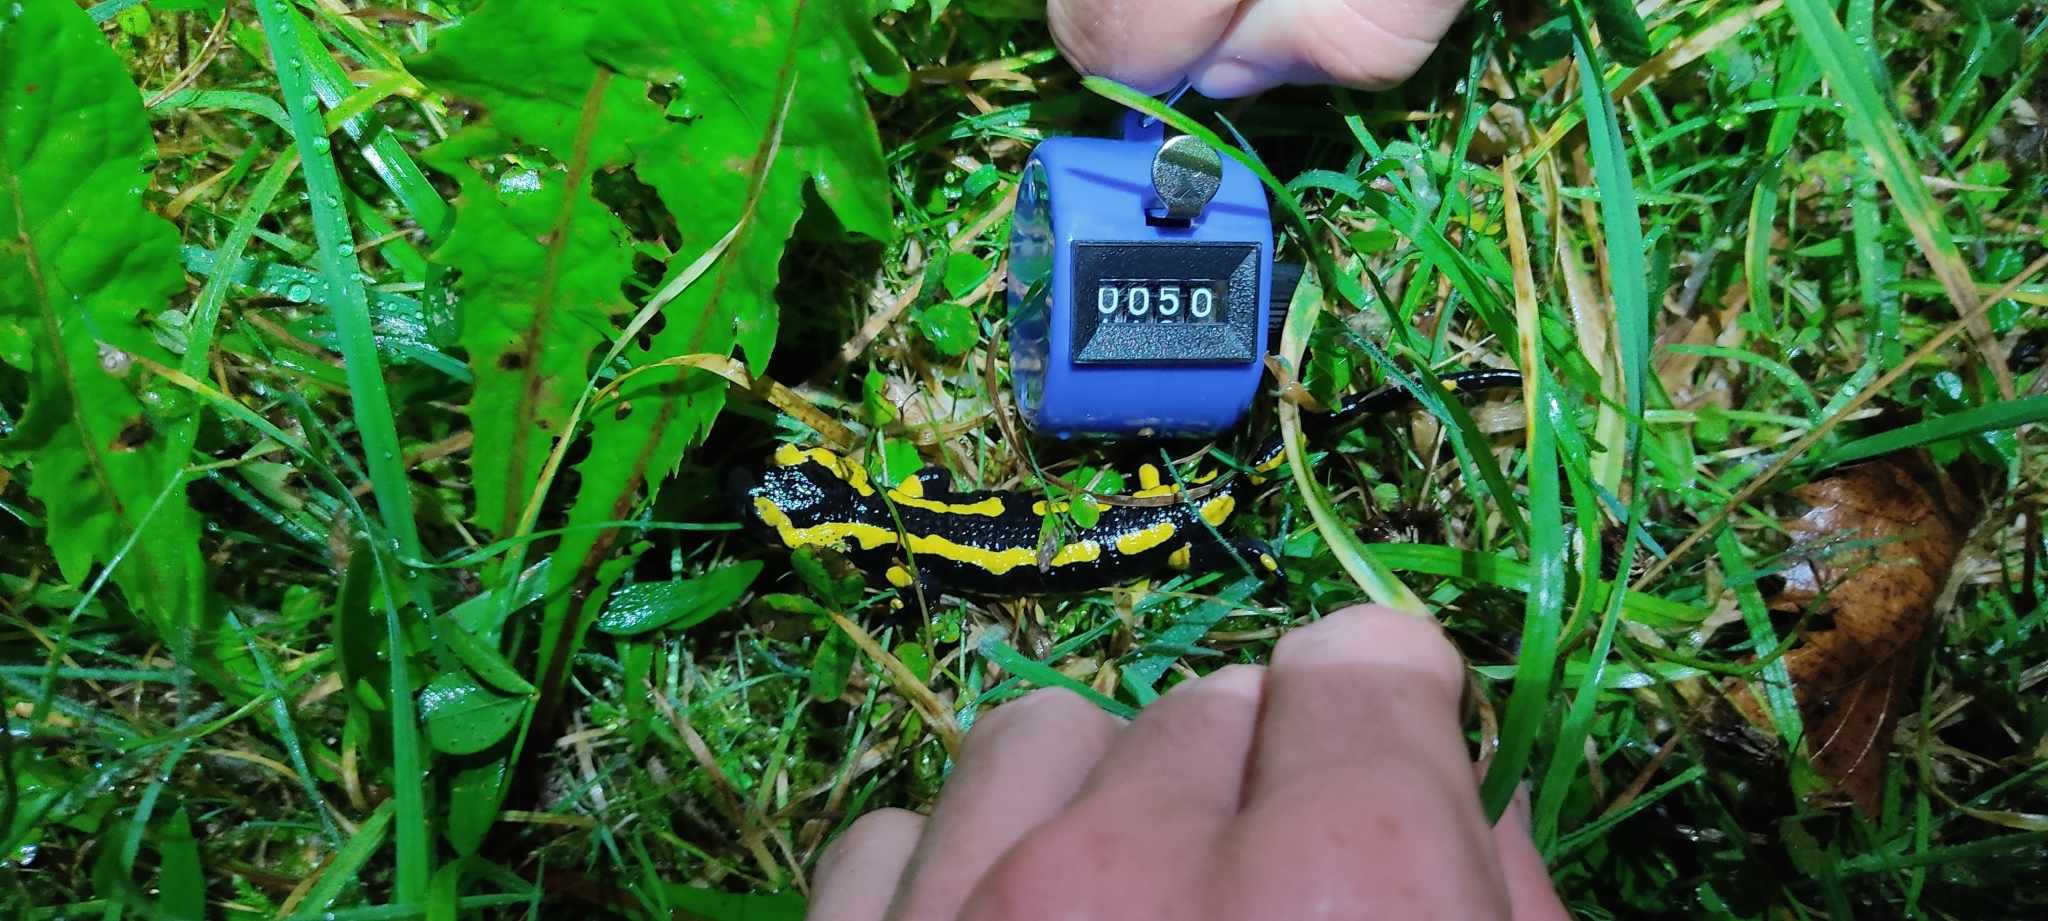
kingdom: Animalia
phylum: Chordata
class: Amphibia
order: Caudata
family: Salamandridae
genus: Salamandra
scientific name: Salamandra salamandra
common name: Fire salamander
